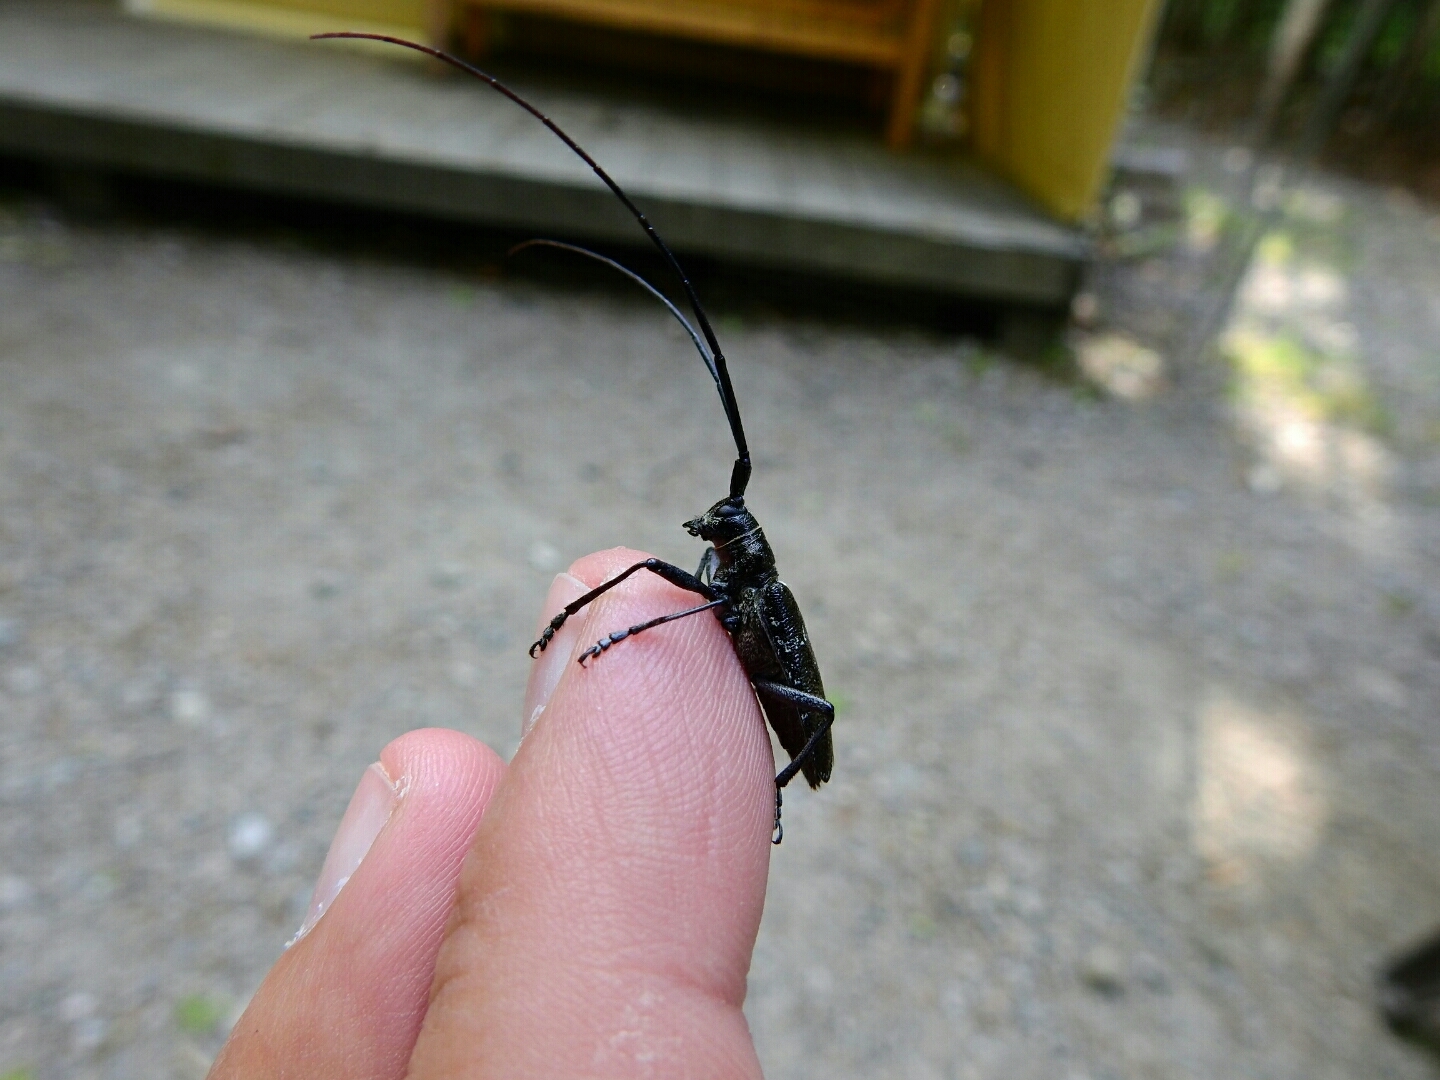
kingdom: Animalia
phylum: Arthropoda
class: Insecta
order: Coleoptera
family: Cerambycidae
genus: Monochamus
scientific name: Monochamus scutellatus
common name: White-spotted sawyer beetle
